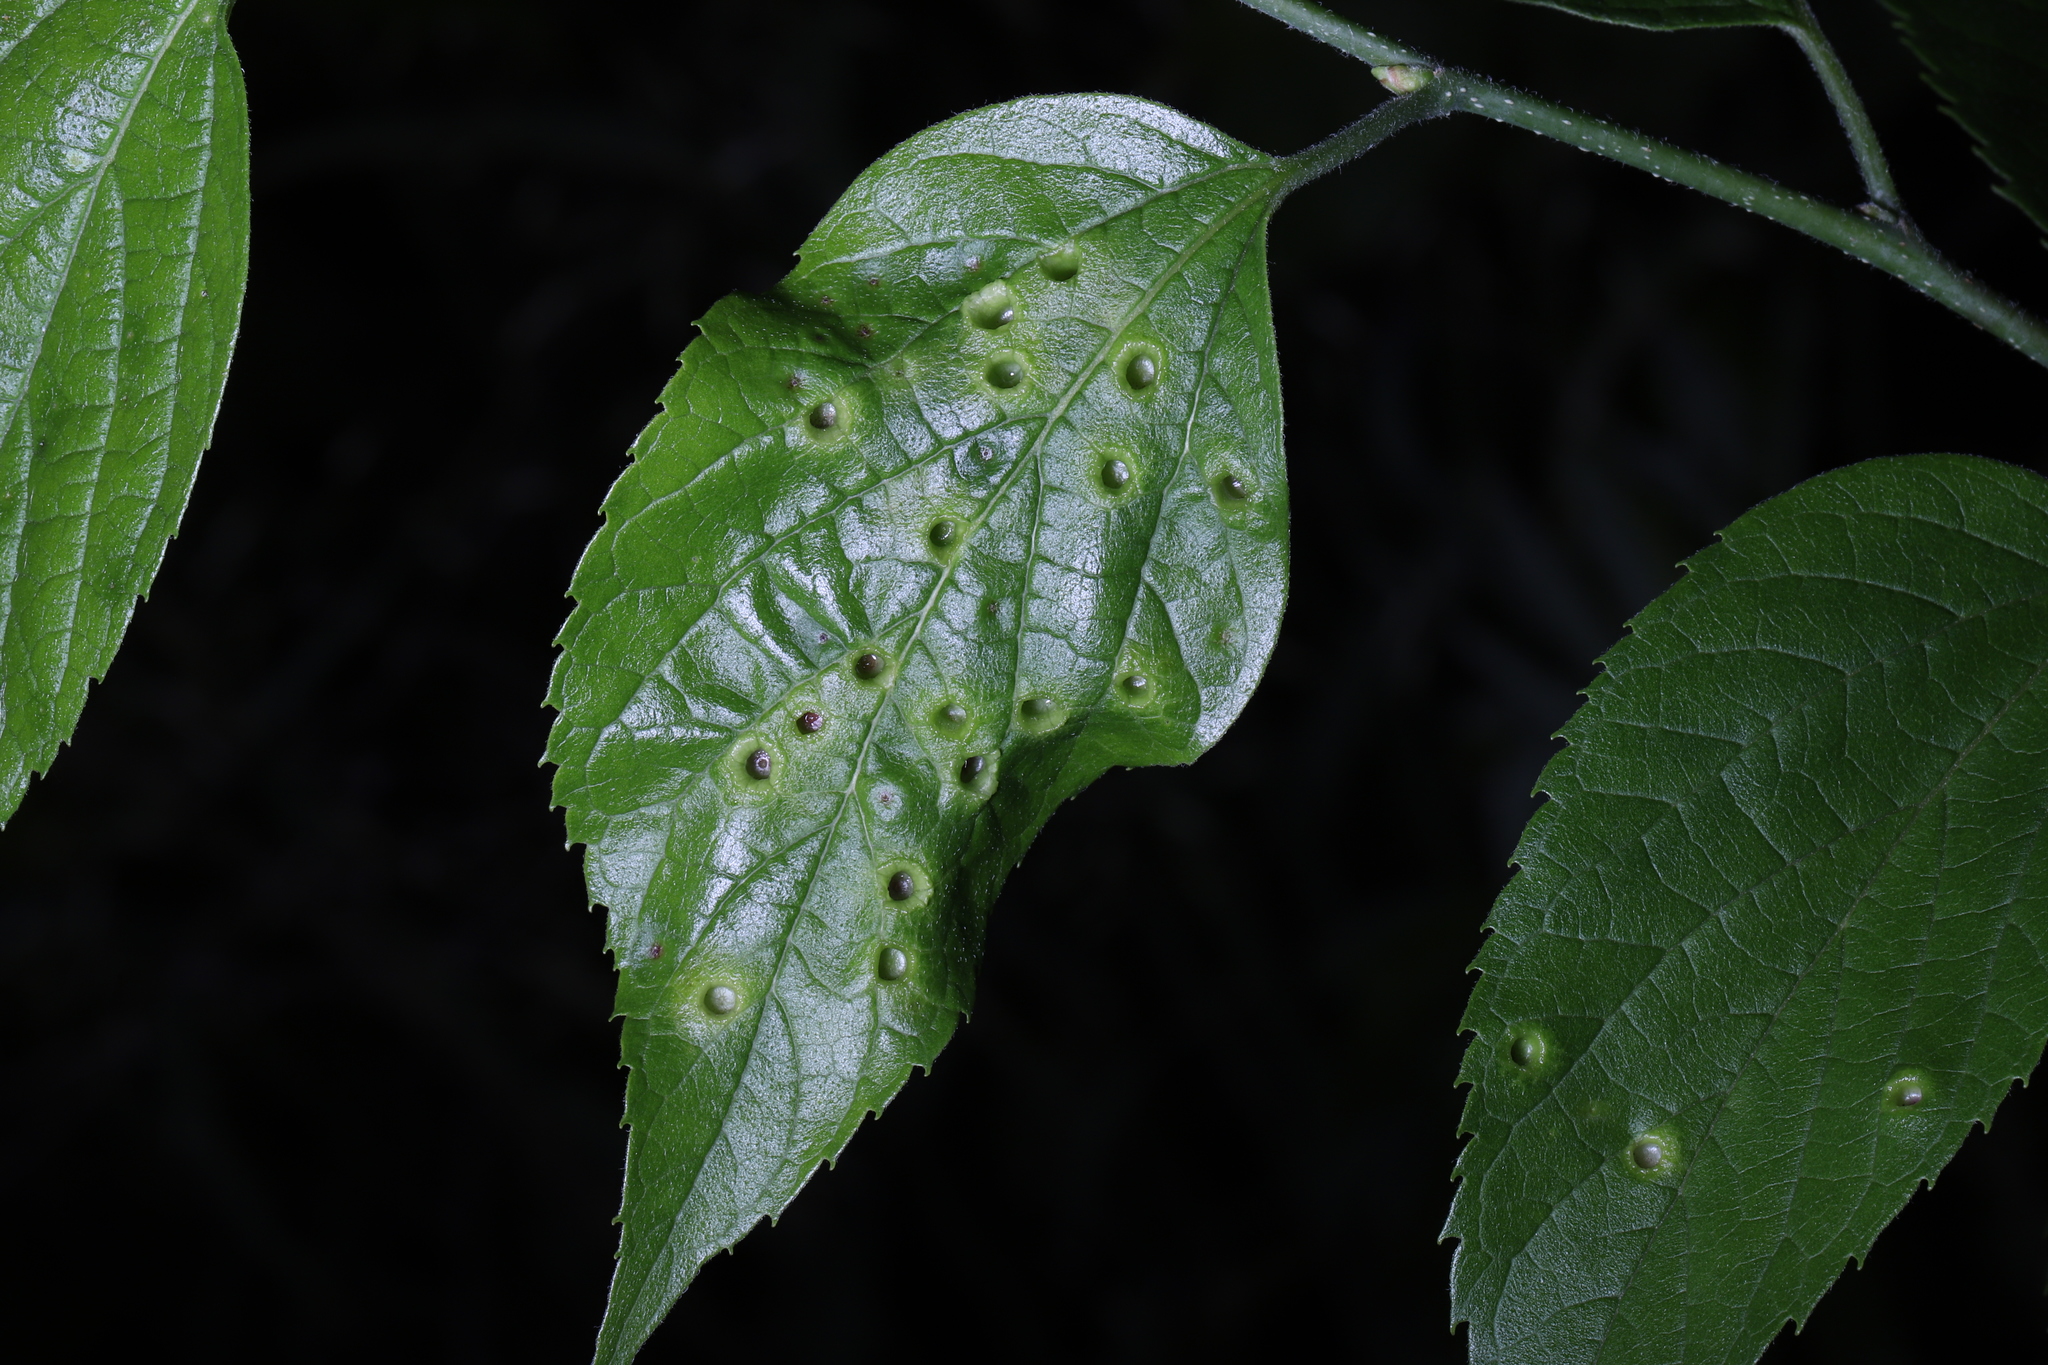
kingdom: Animalia
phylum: Arthropoda
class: Insecta
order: Hemiptera
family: Aphalaridae
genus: Pachypsylla
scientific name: Pachypsylla celtidismamma
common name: Hackberry nipplegall psyllid
